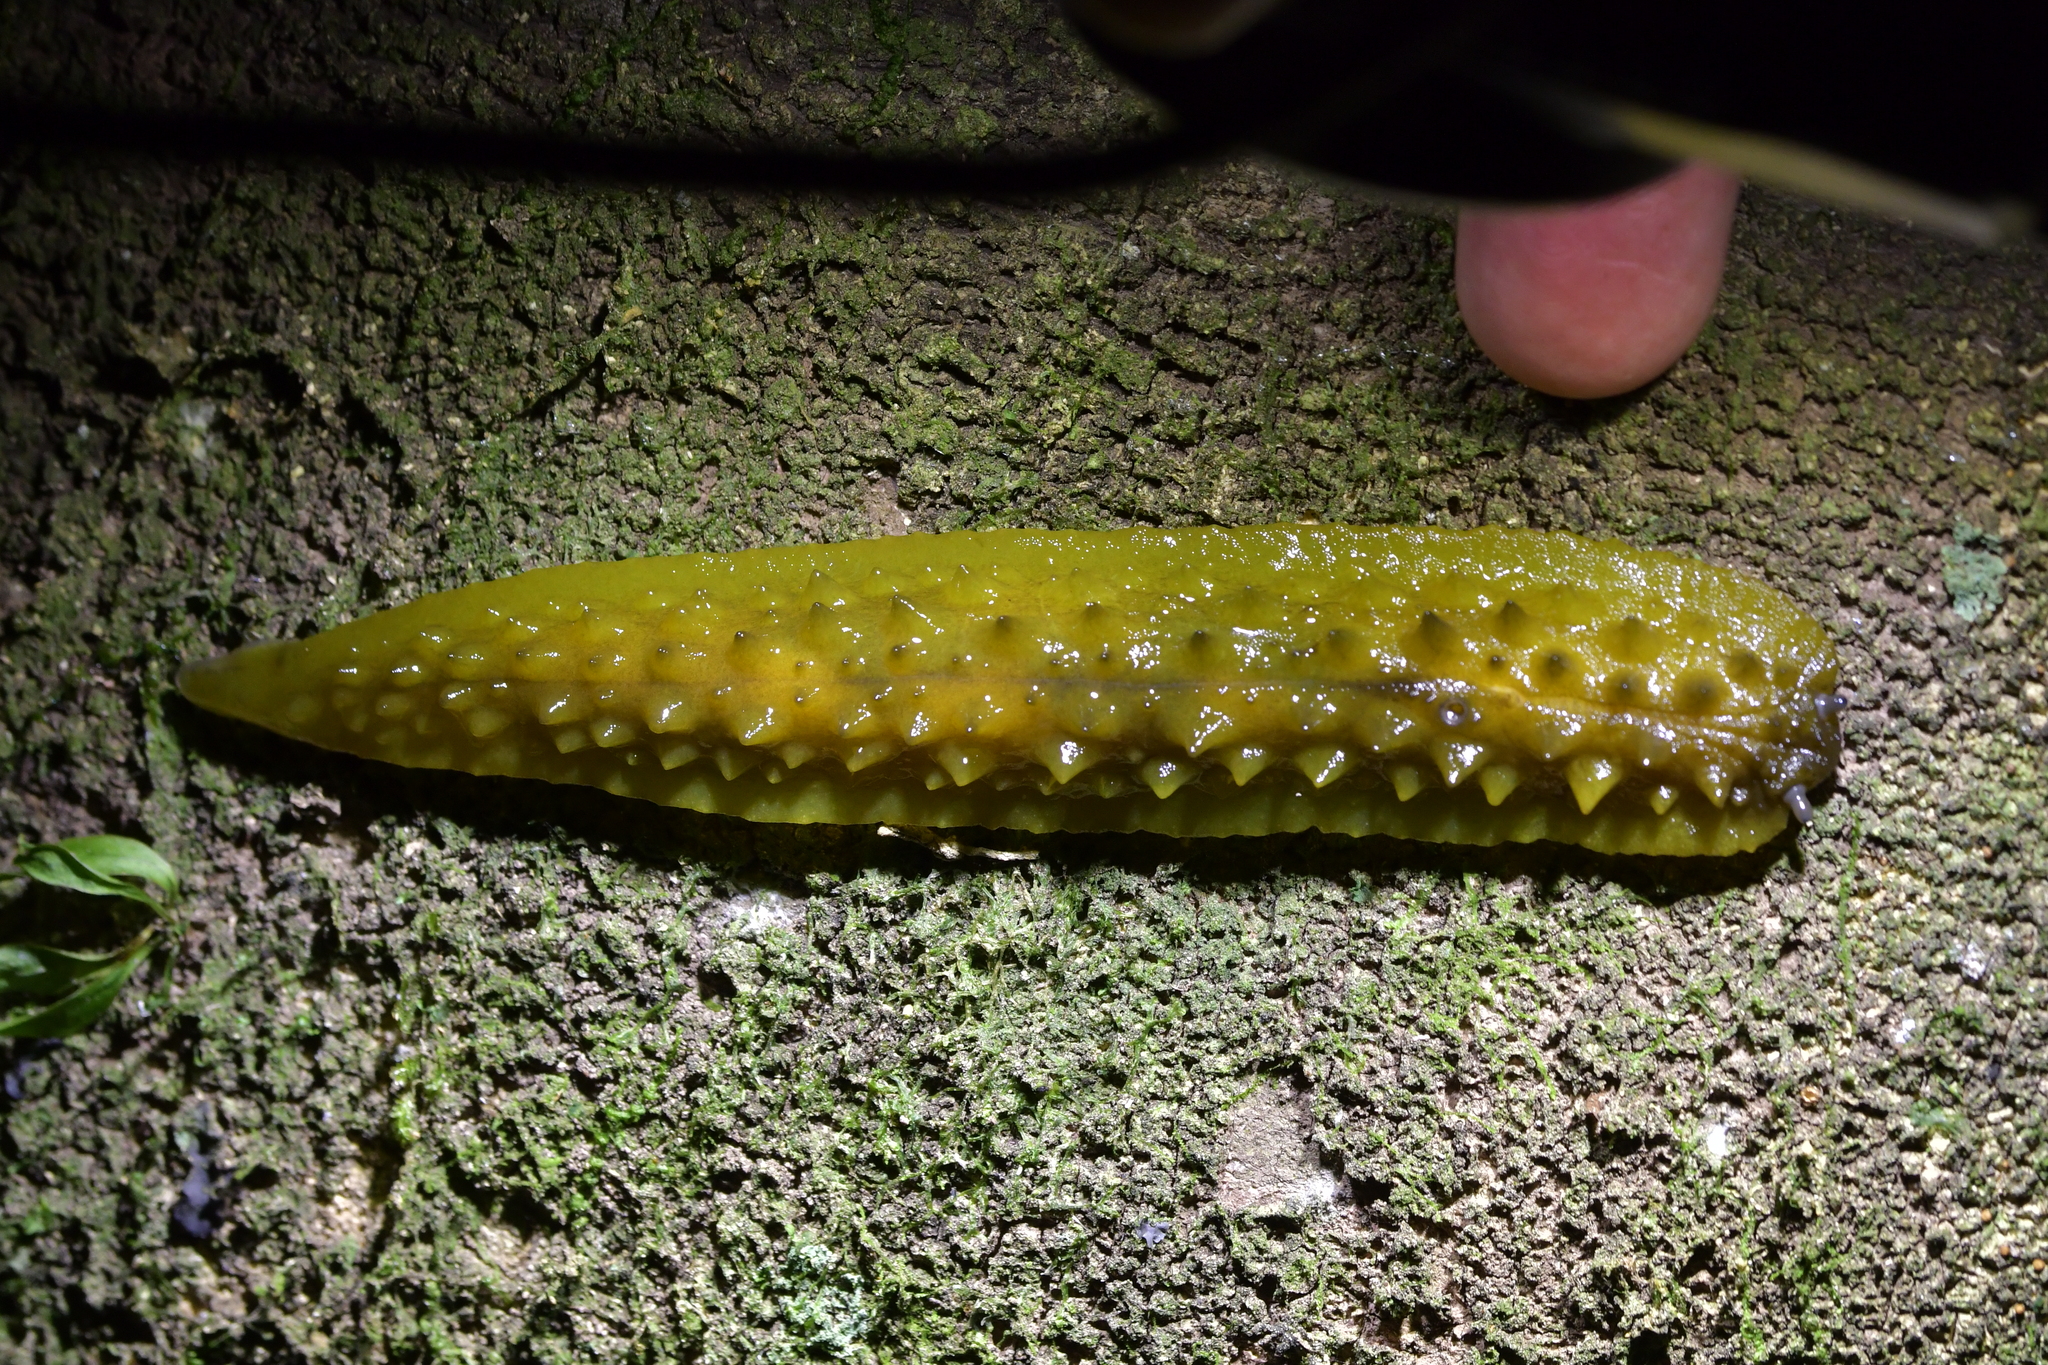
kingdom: Animalia
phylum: Mollusca
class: Gastropoda
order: Stylommatophora
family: Athoracophoridae
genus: Athoracophorus
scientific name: Athoracophorus papillatus
